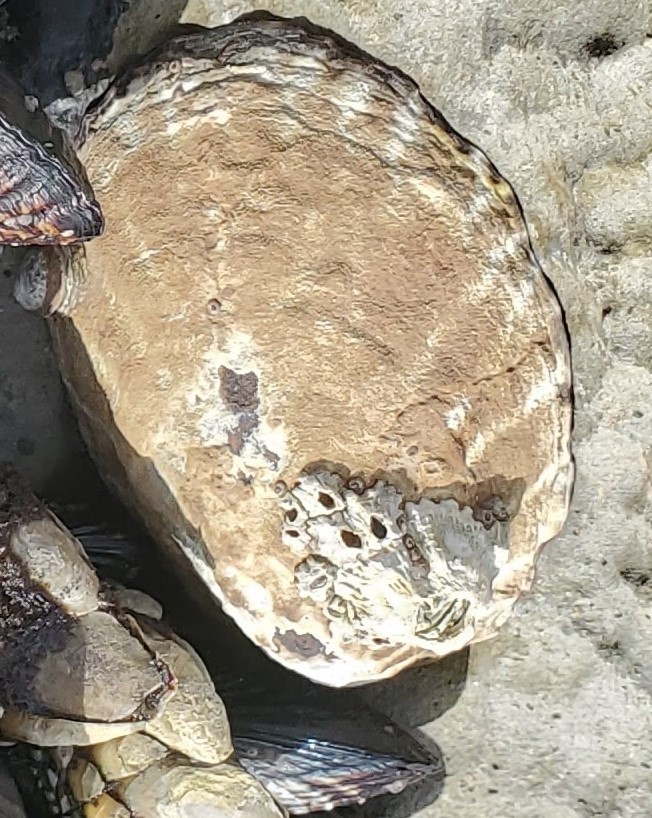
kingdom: Animalia
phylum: Mollusca
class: Gastropoda
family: Lottiidae
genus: Lottia
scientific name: Lottia gigantea
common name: Owl limpet
